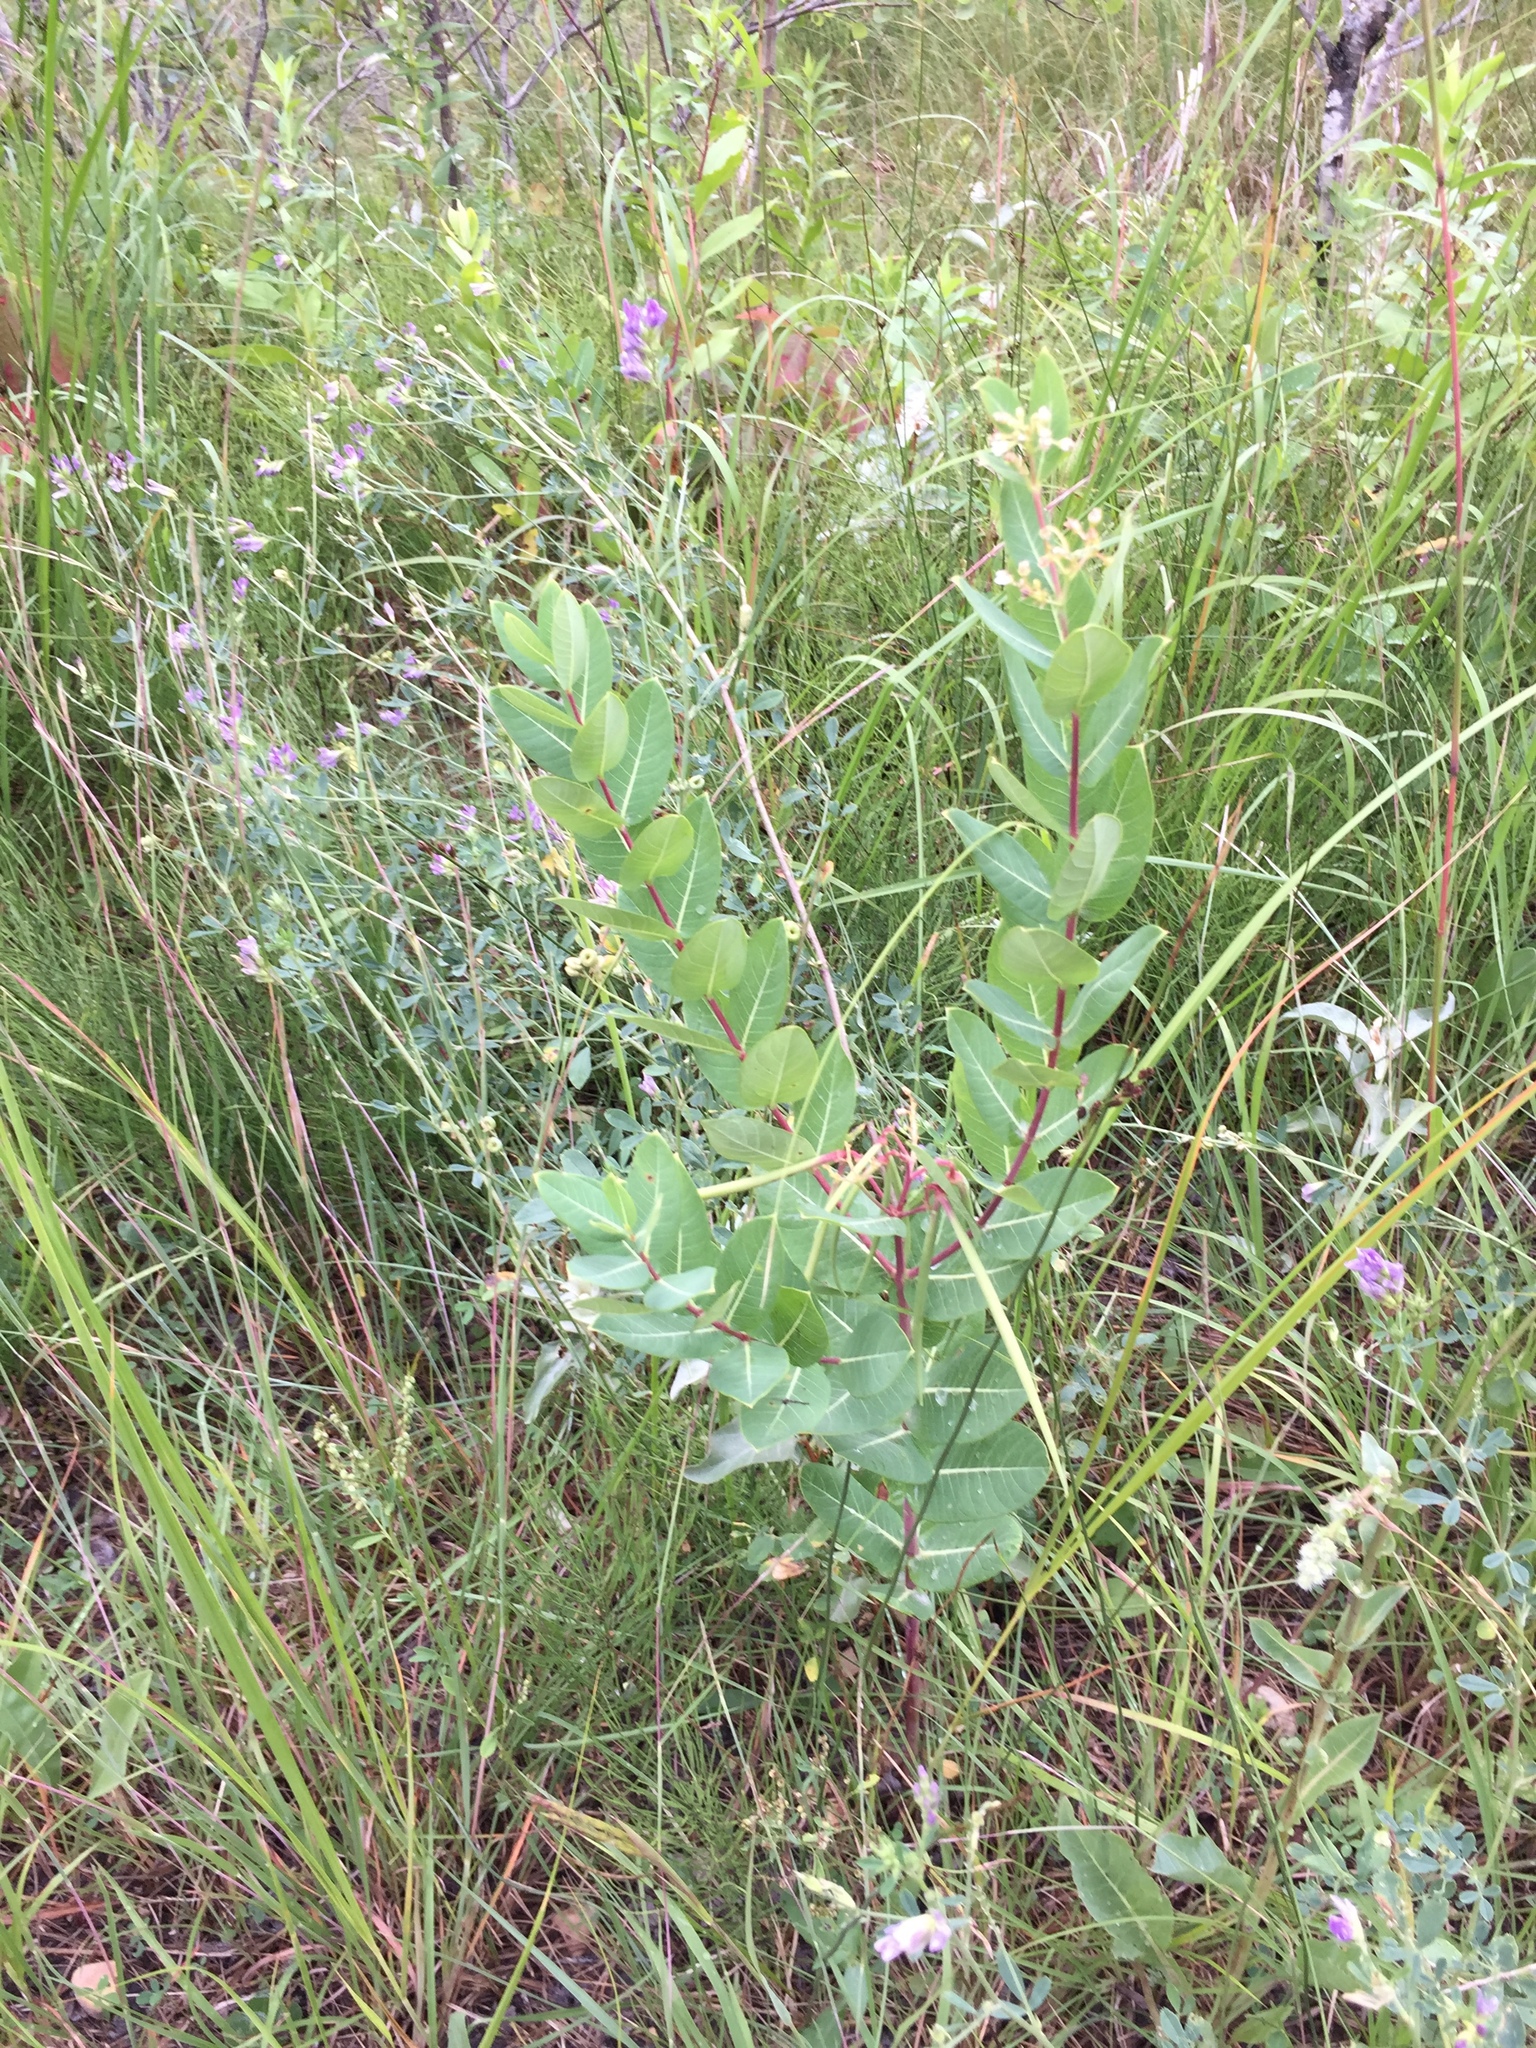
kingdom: Plantae
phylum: Tracheophyta
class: Magnoliopsida
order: Gentianales
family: Apocynaceae
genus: Apocynum
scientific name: Apocynum cannabinum
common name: Hemp dogbane
